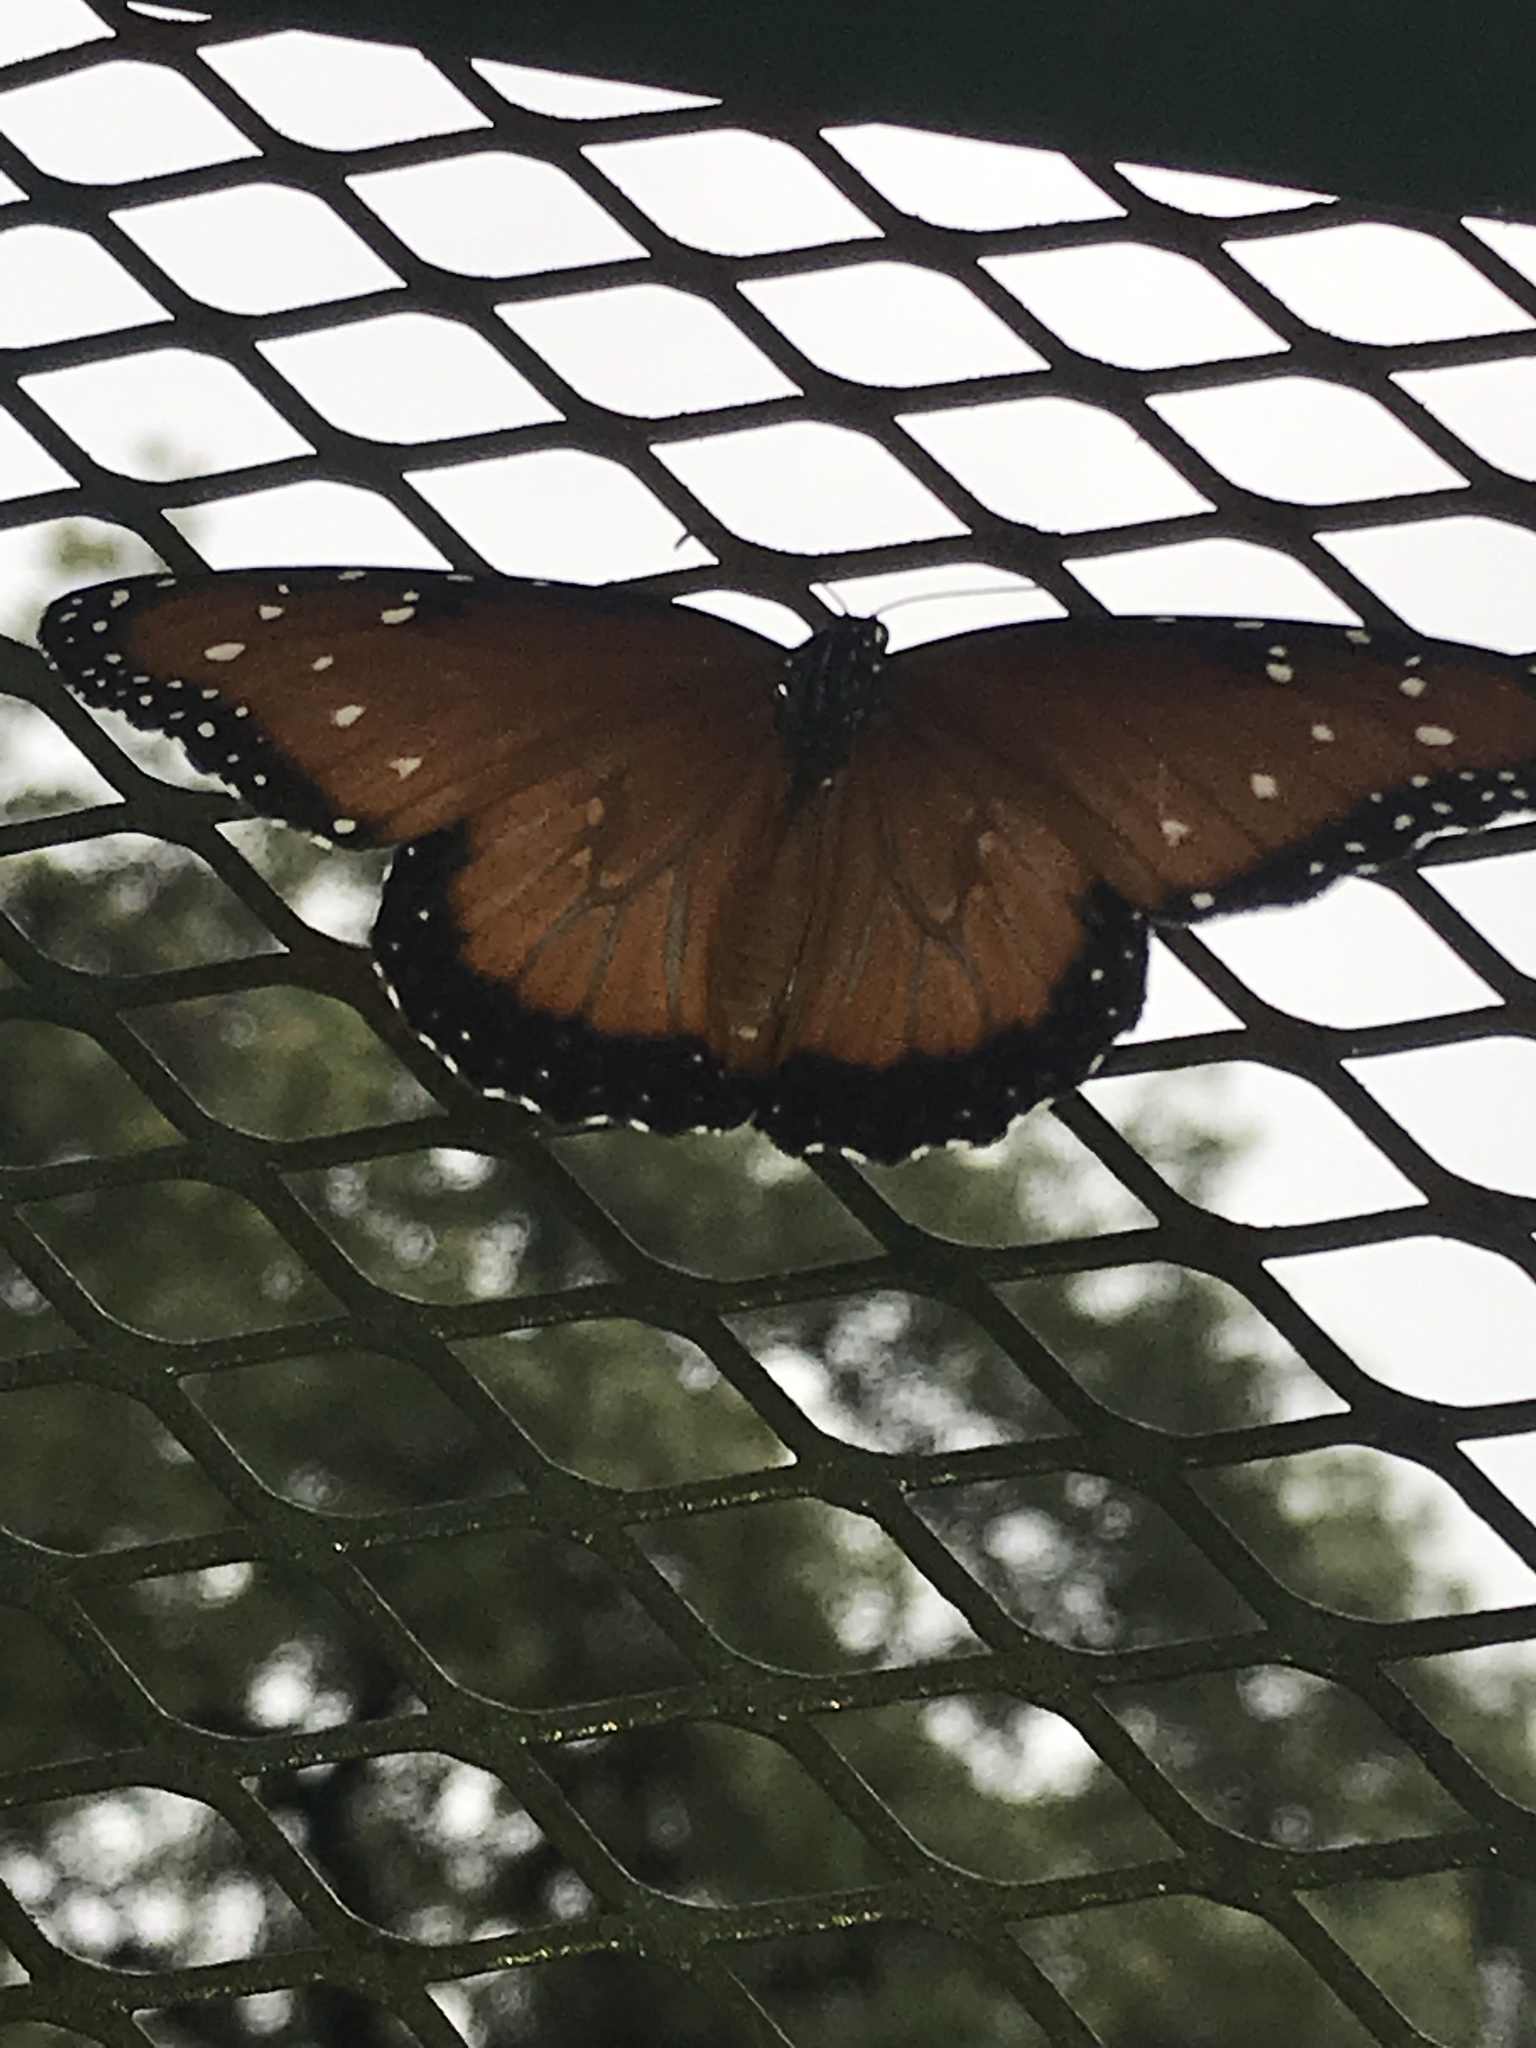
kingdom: Animalia
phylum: Arthropoda
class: Insecta
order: Lepidoptera
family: Nymphalidae
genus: Danaus
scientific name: Danaus gilippus
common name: Queen
